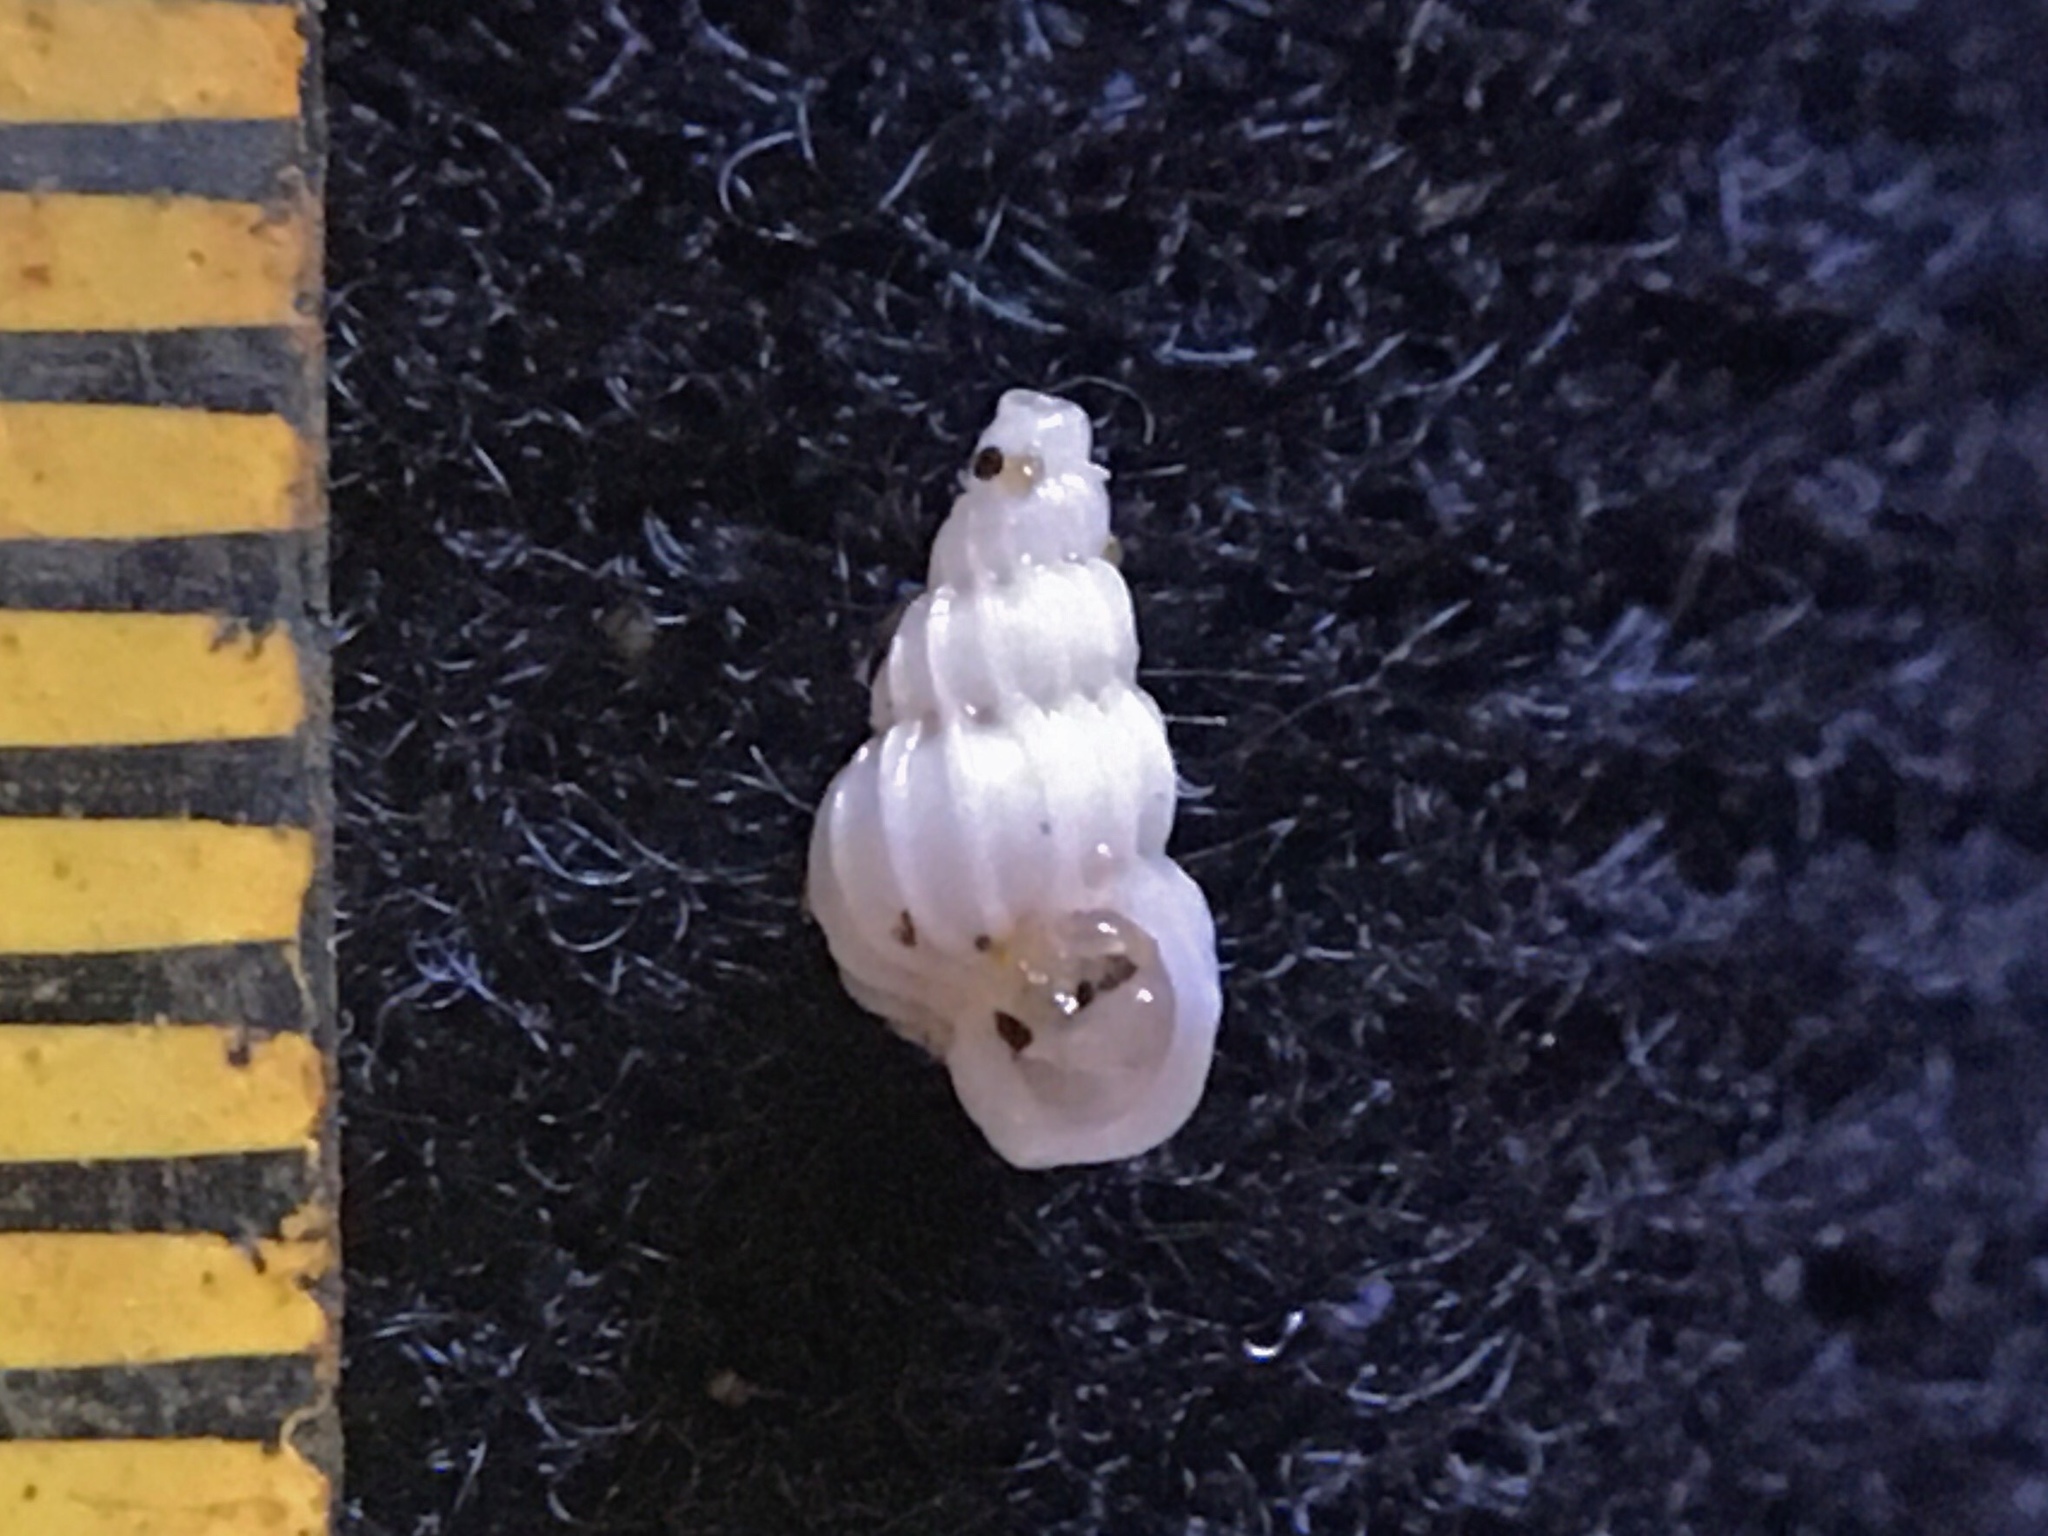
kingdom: Animalia
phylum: Mollusca
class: Gastropoda
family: Epitoniidae
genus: Epitonium
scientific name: Epitonium fabrizioi
